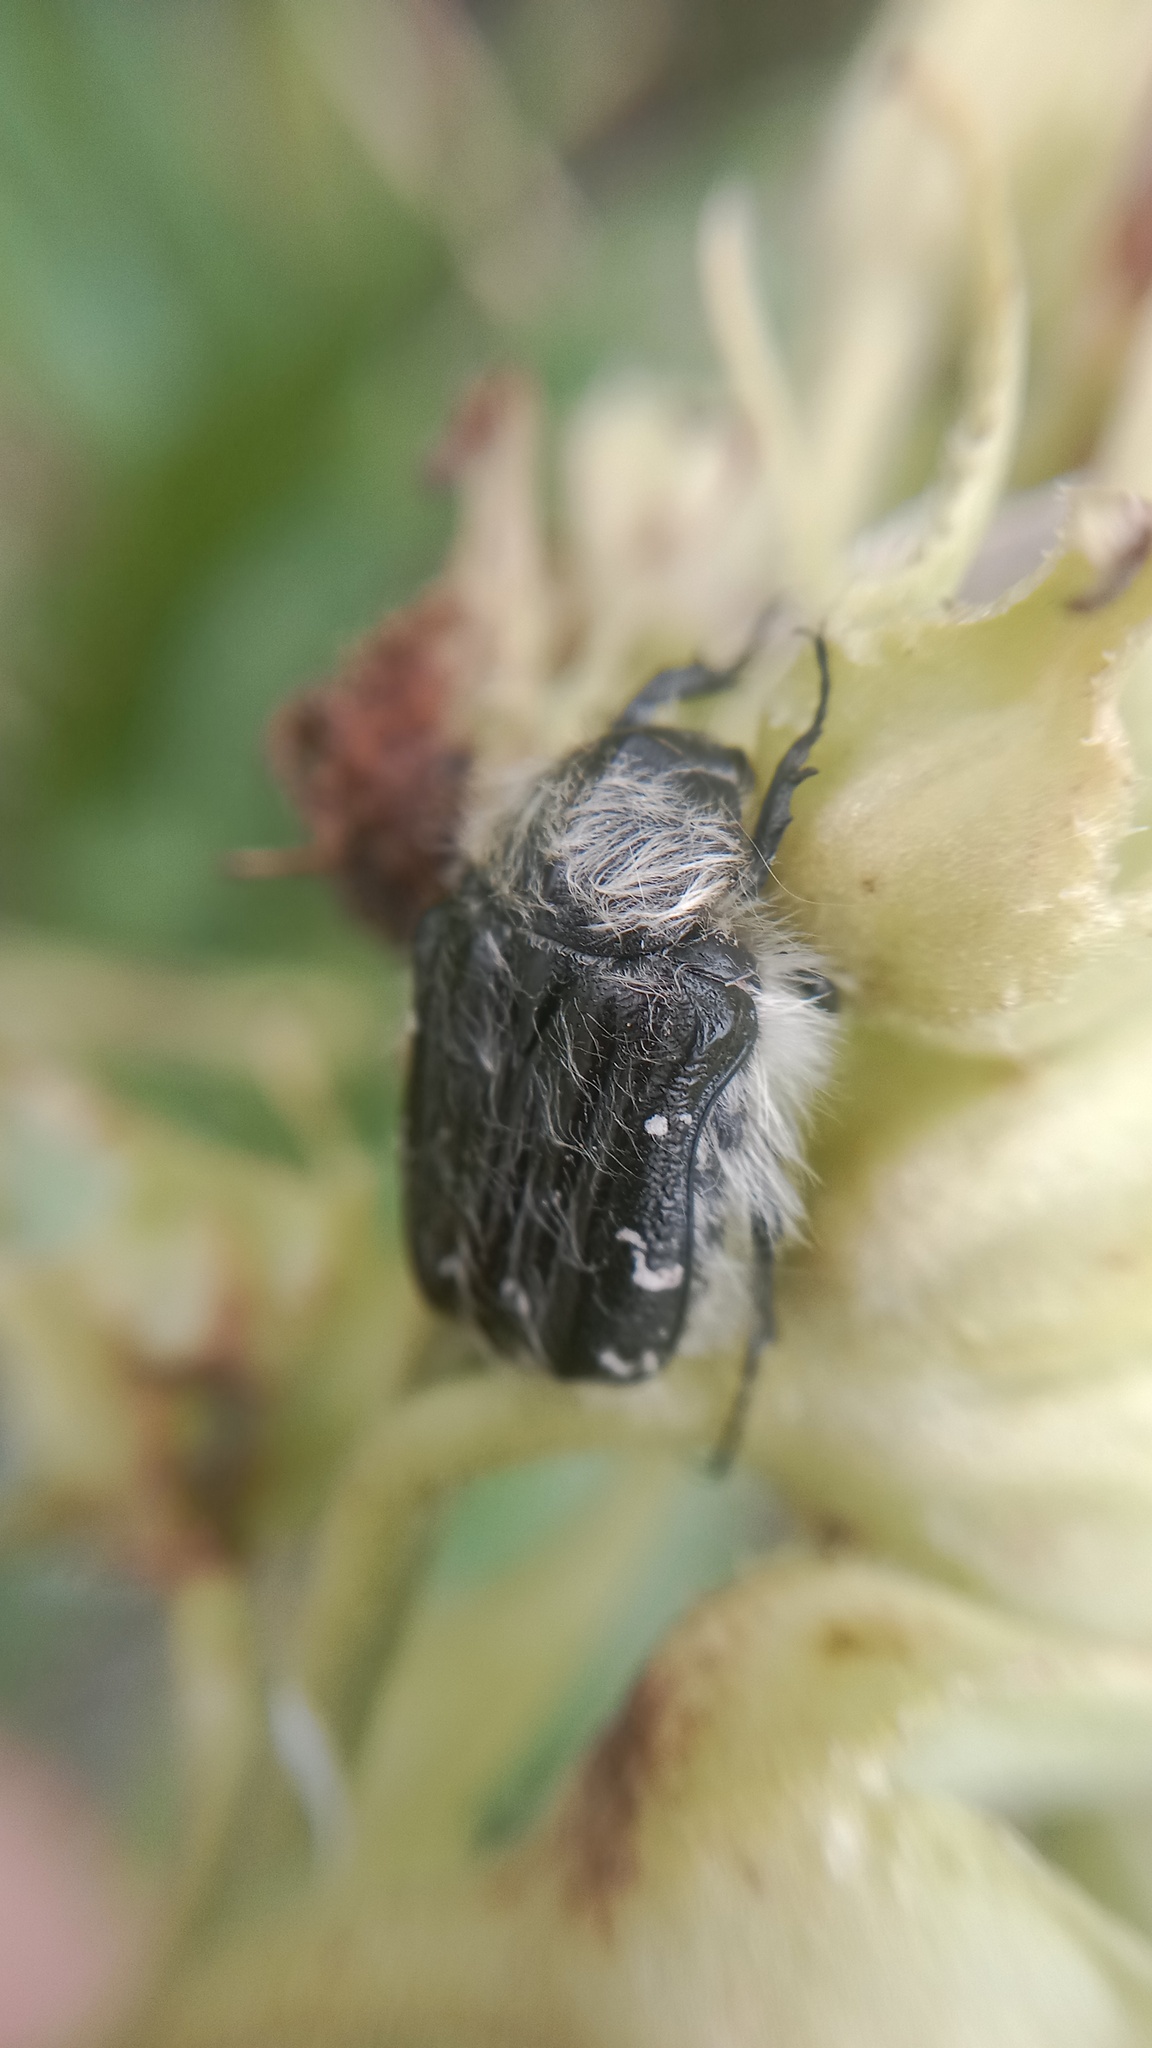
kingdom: Animalia
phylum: Arthropoda
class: Insecta
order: Coleoptera
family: Scarabaeidae
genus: Tropinota
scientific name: Tropinota hirta
